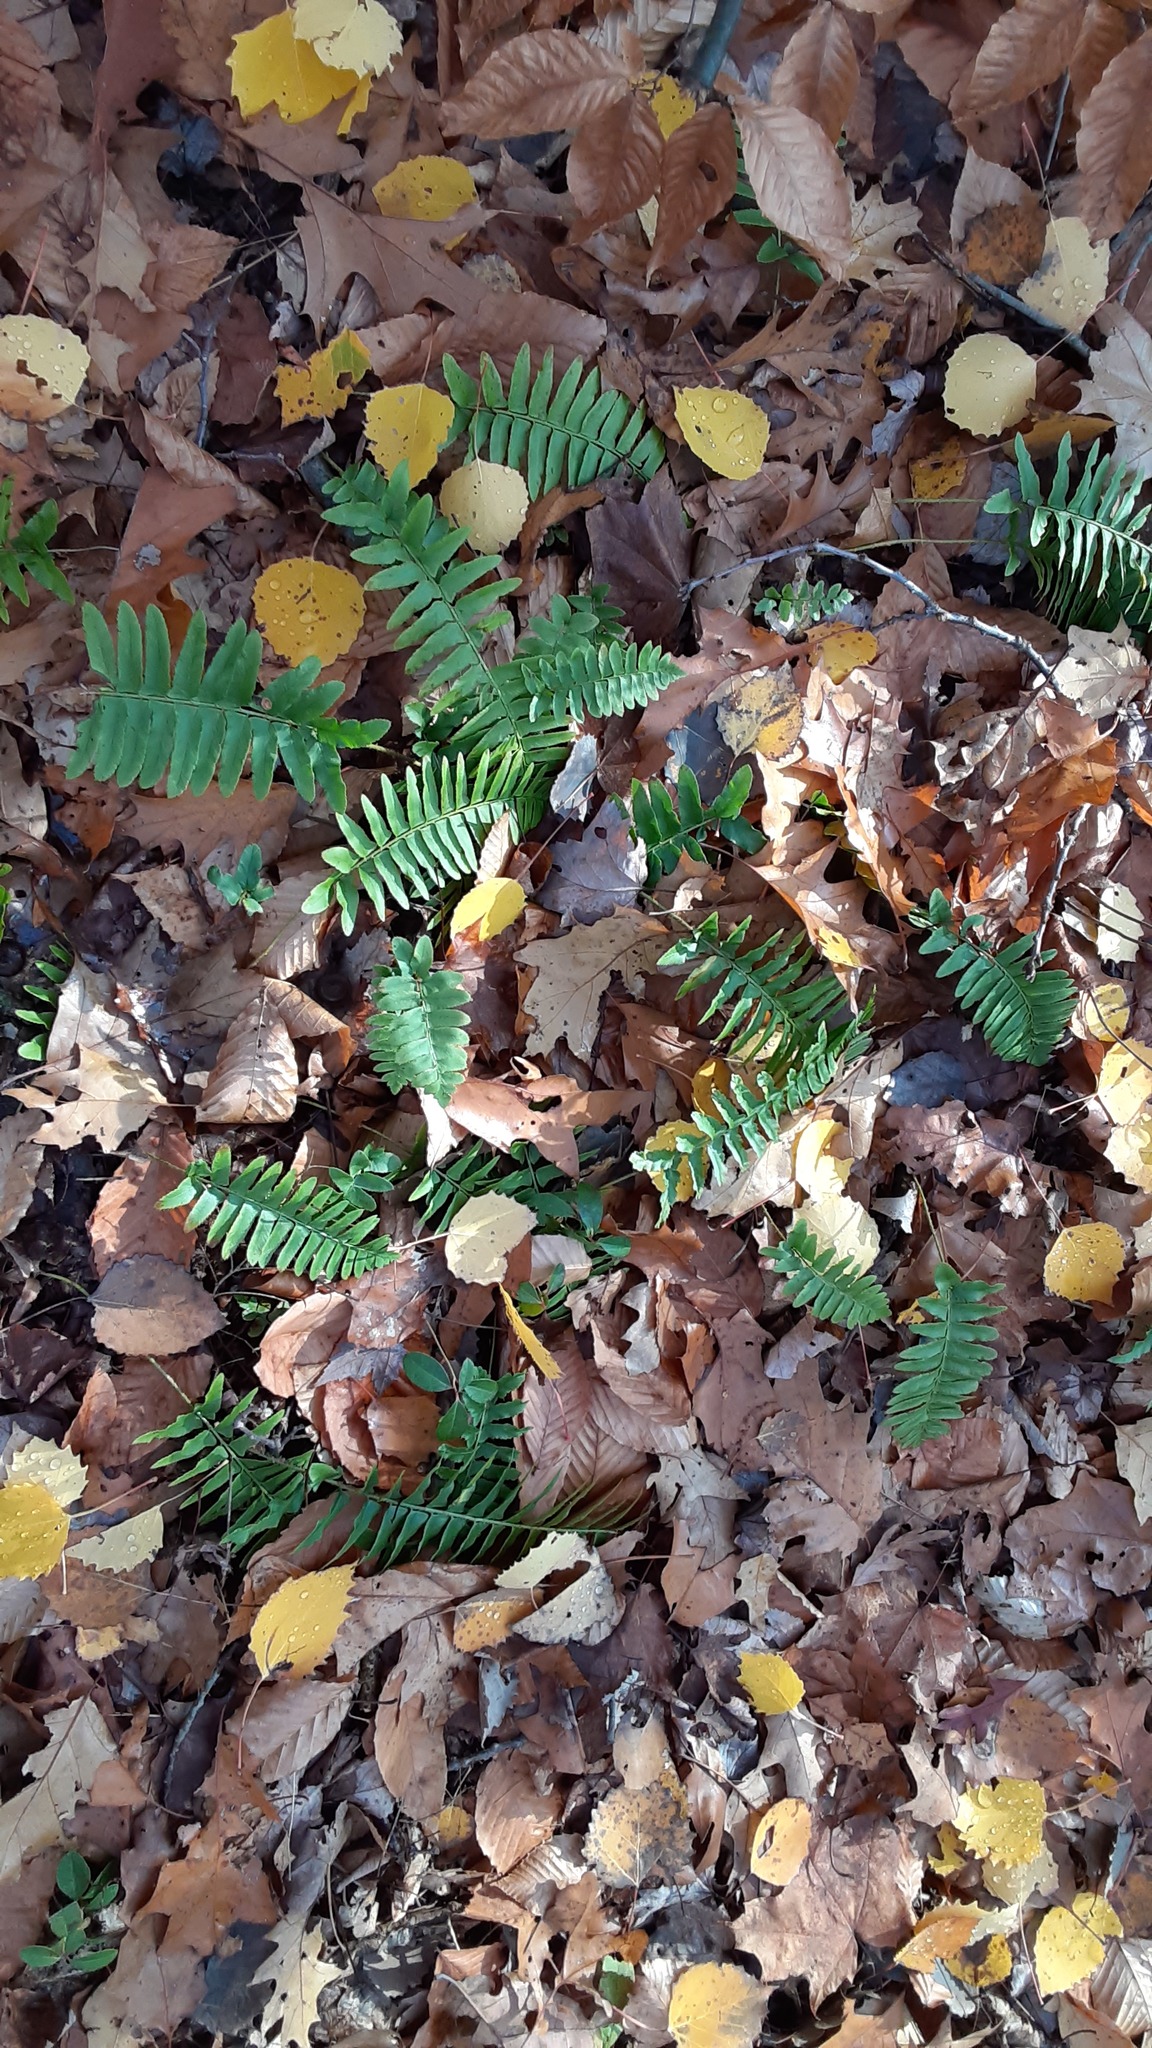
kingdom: Plantae
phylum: Tracheophyta
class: Polypodiopsida
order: Polypodiales
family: Dryopteridaceae
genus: Polystichum
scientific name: Polystichum acrostichoides
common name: Christmas fern
